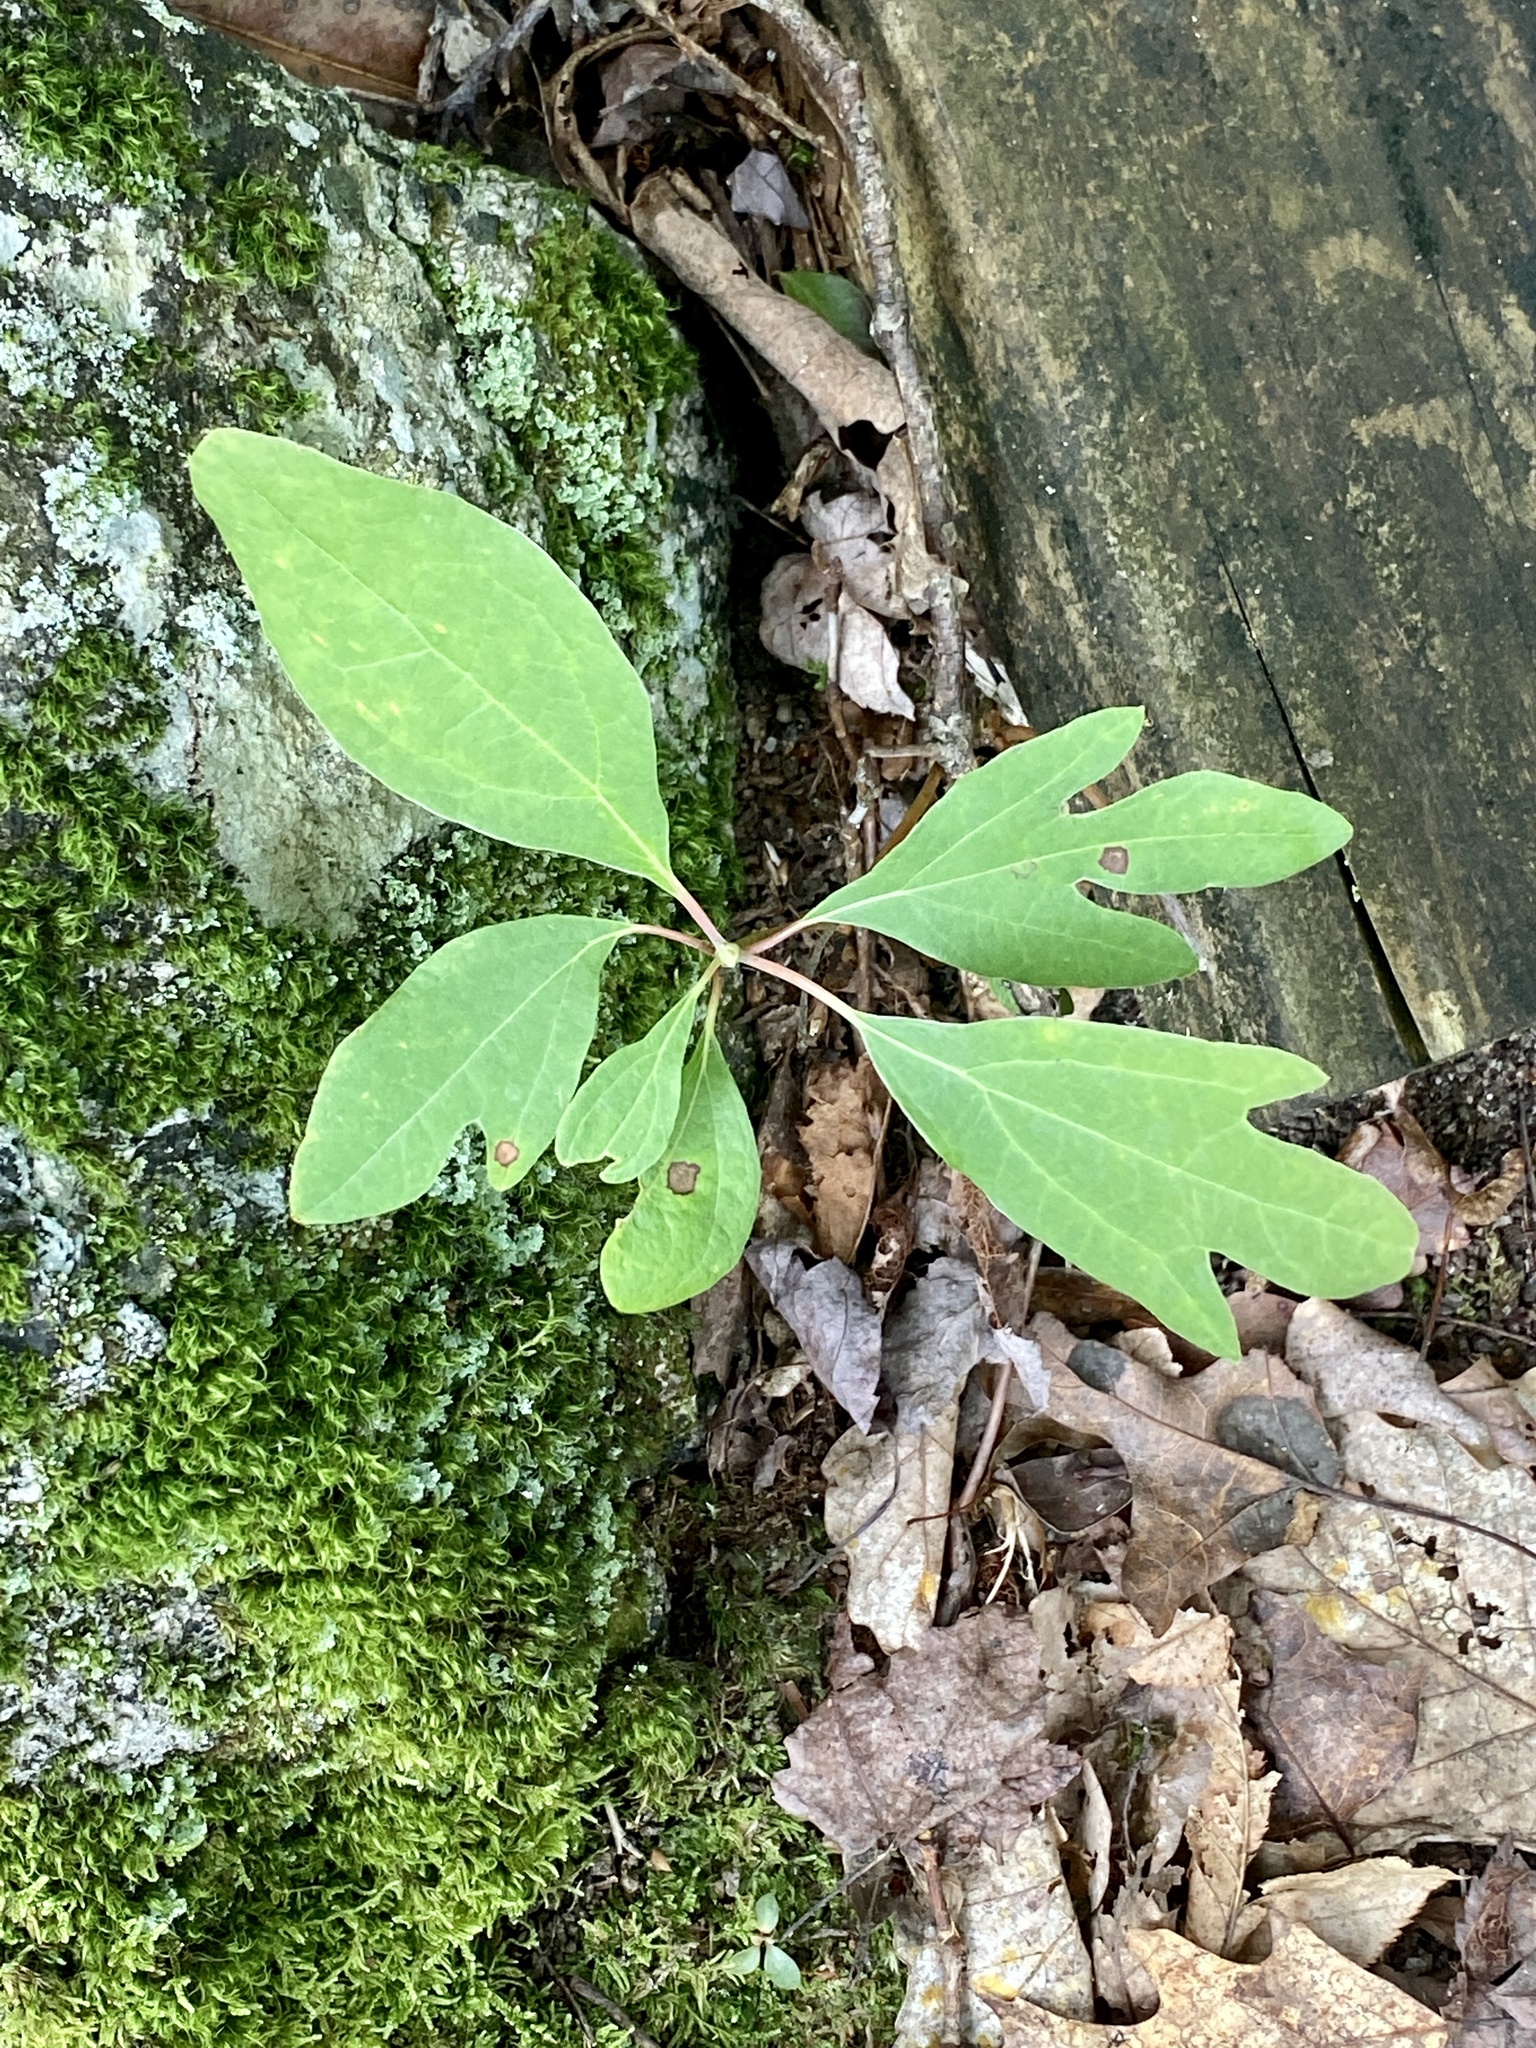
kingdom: Plantae
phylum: Tracheophyta
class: Magnoliopsida
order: Laurales
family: Lauraceae
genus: Sassafras
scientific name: Sassafras albidum
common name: Sassafras
